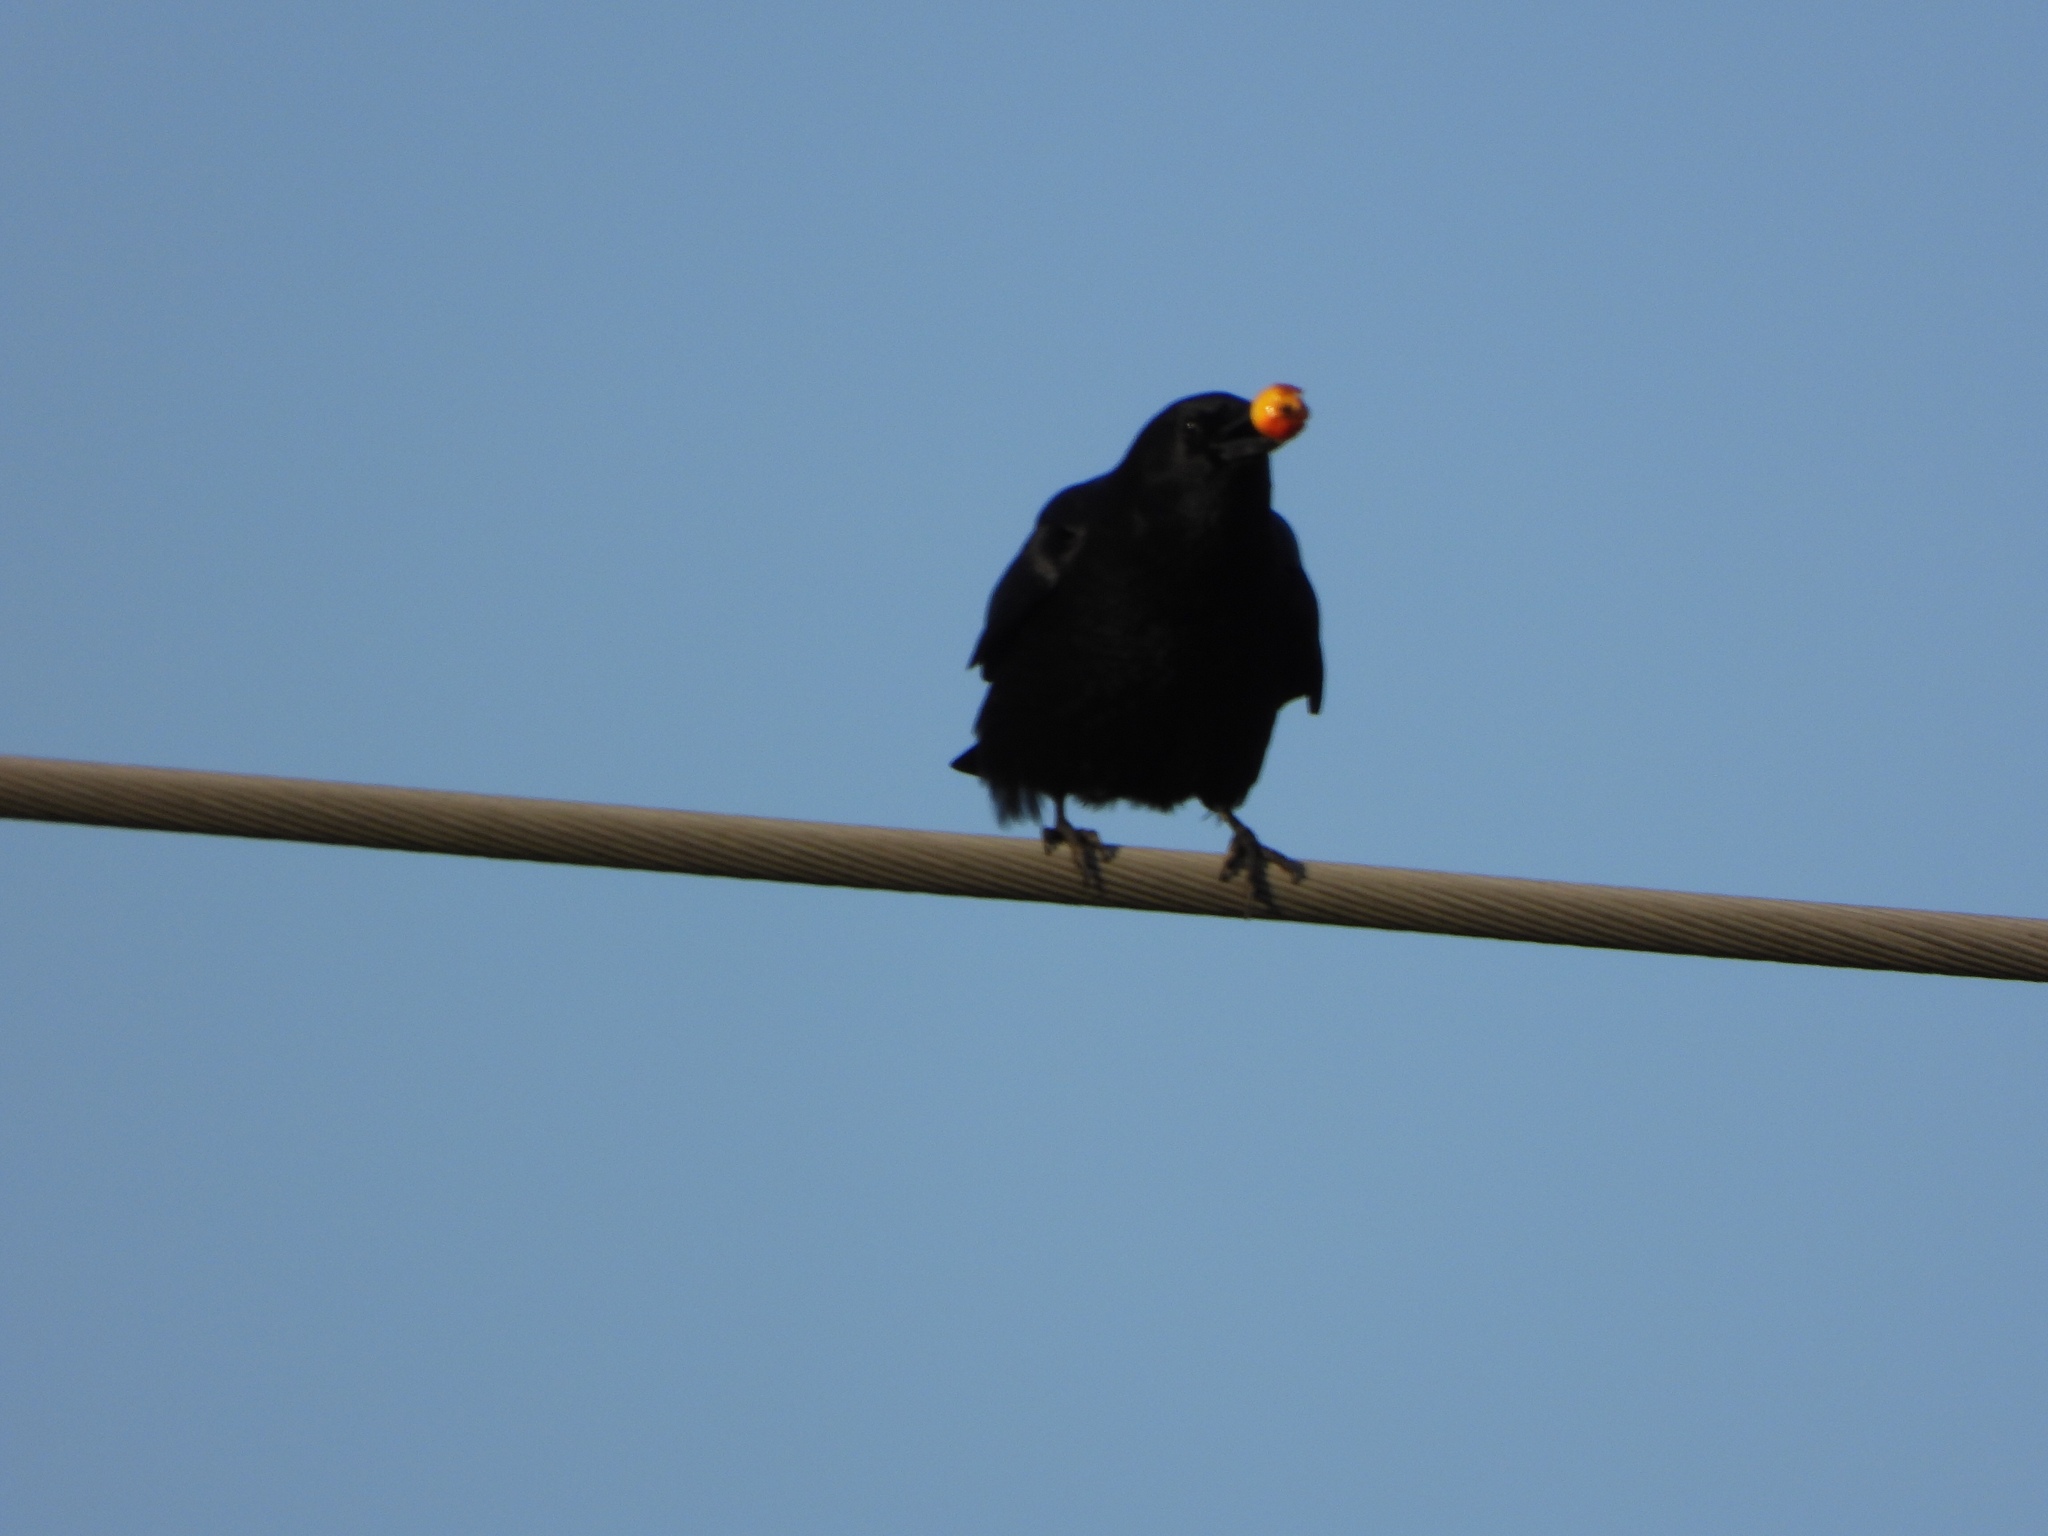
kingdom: Animalia
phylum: Chordata
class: Aves
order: Passeriformes
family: Corvidae
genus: Corvus
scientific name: Corvus brachyrhynchos
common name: American crow
